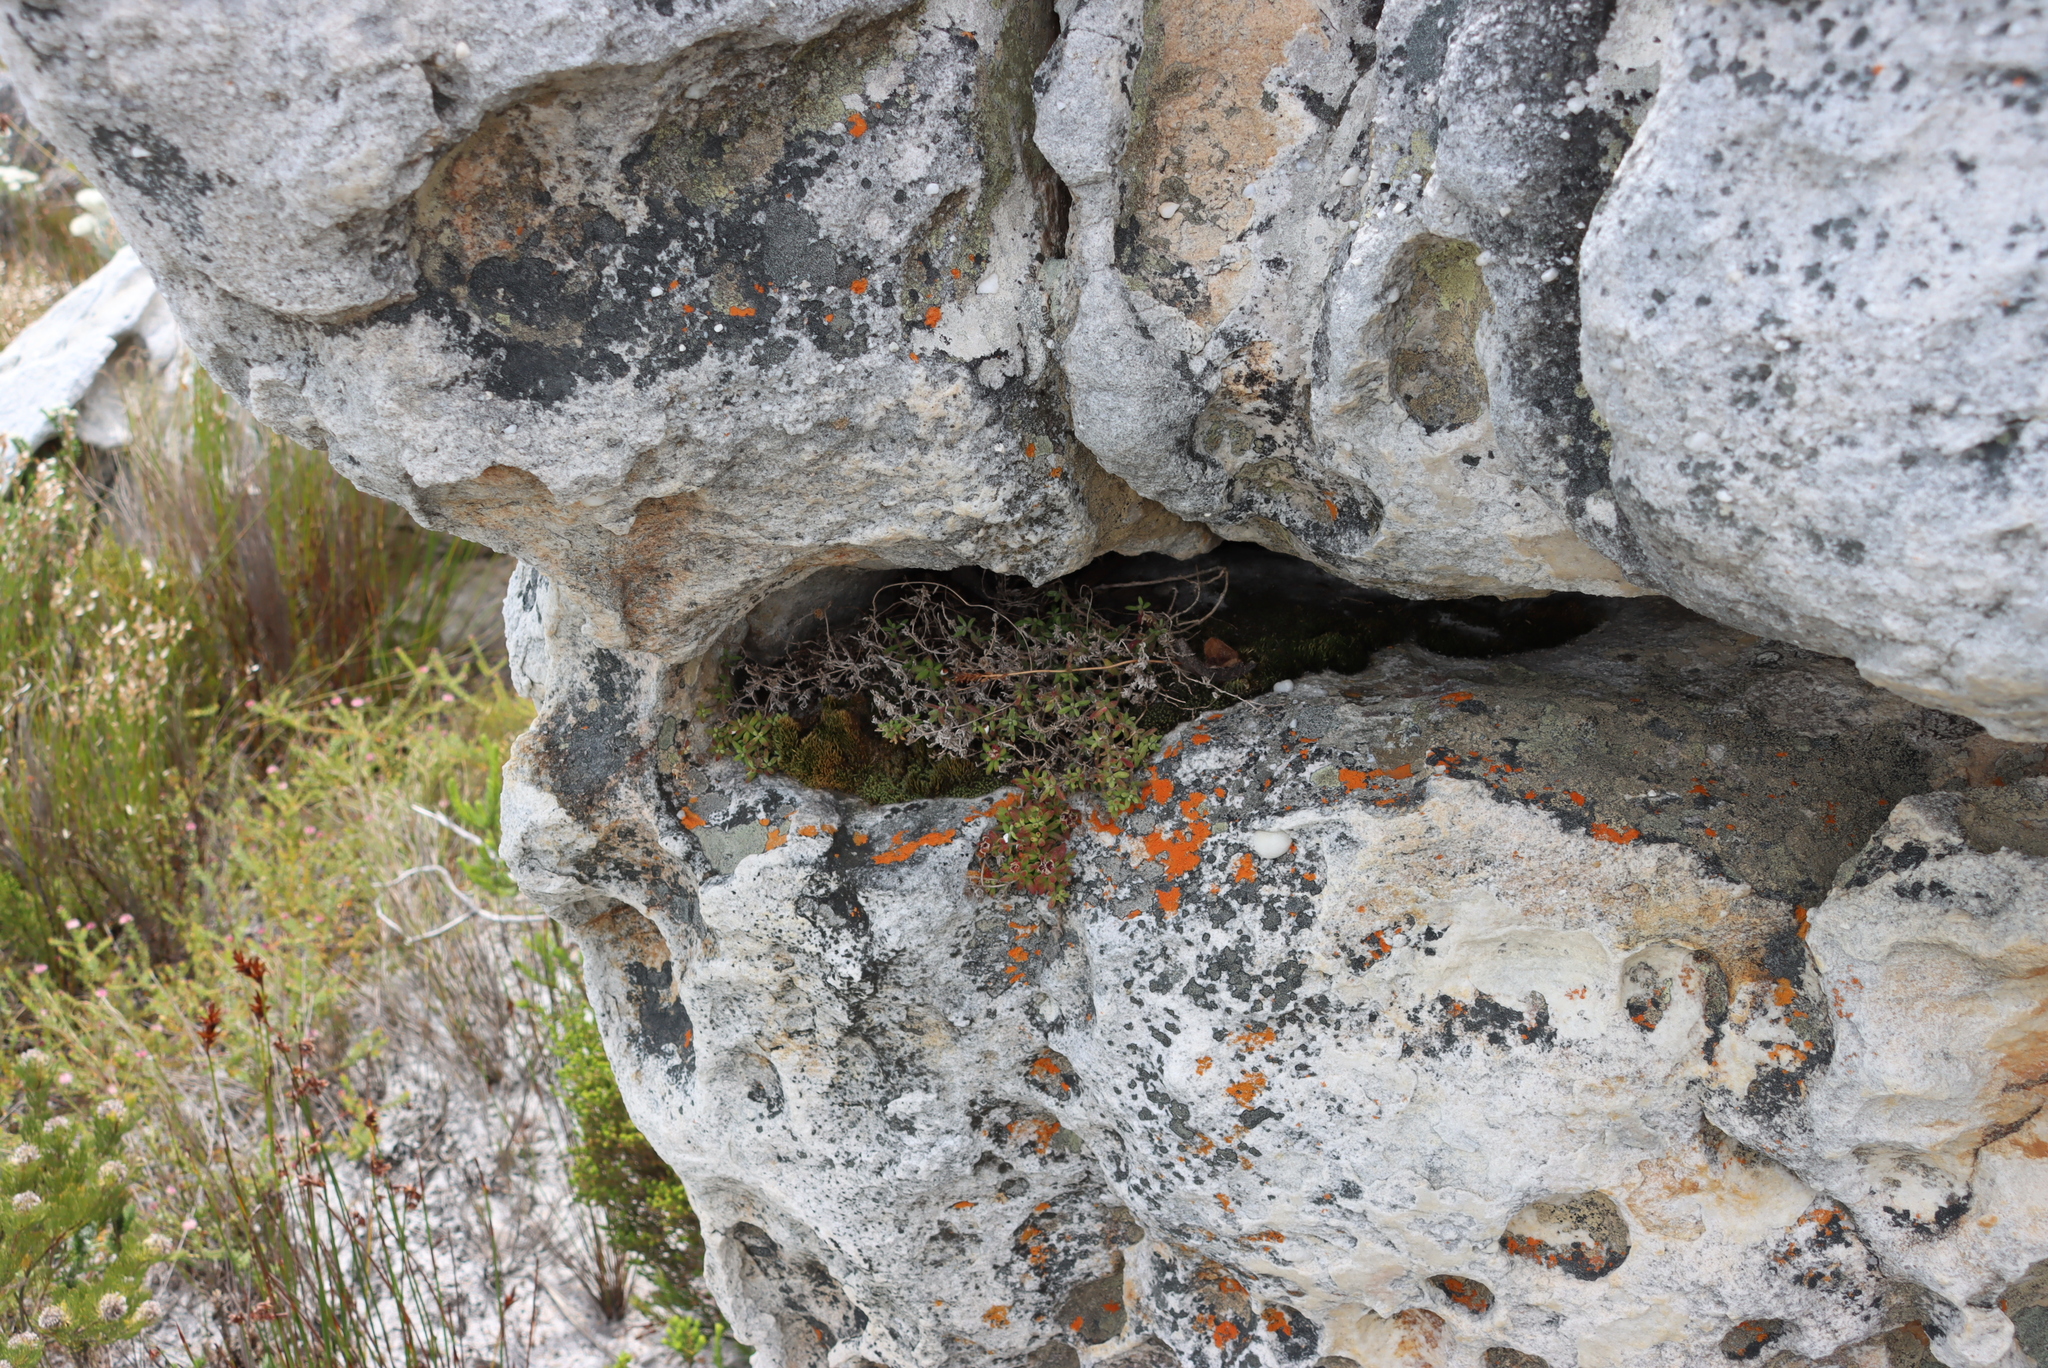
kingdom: Plantae
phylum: Tracheophyta
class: Magnoliopsida
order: Caryophyllales
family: Aizoaceae
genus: Drosanthemum
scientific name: Drosanthemum stokoei
